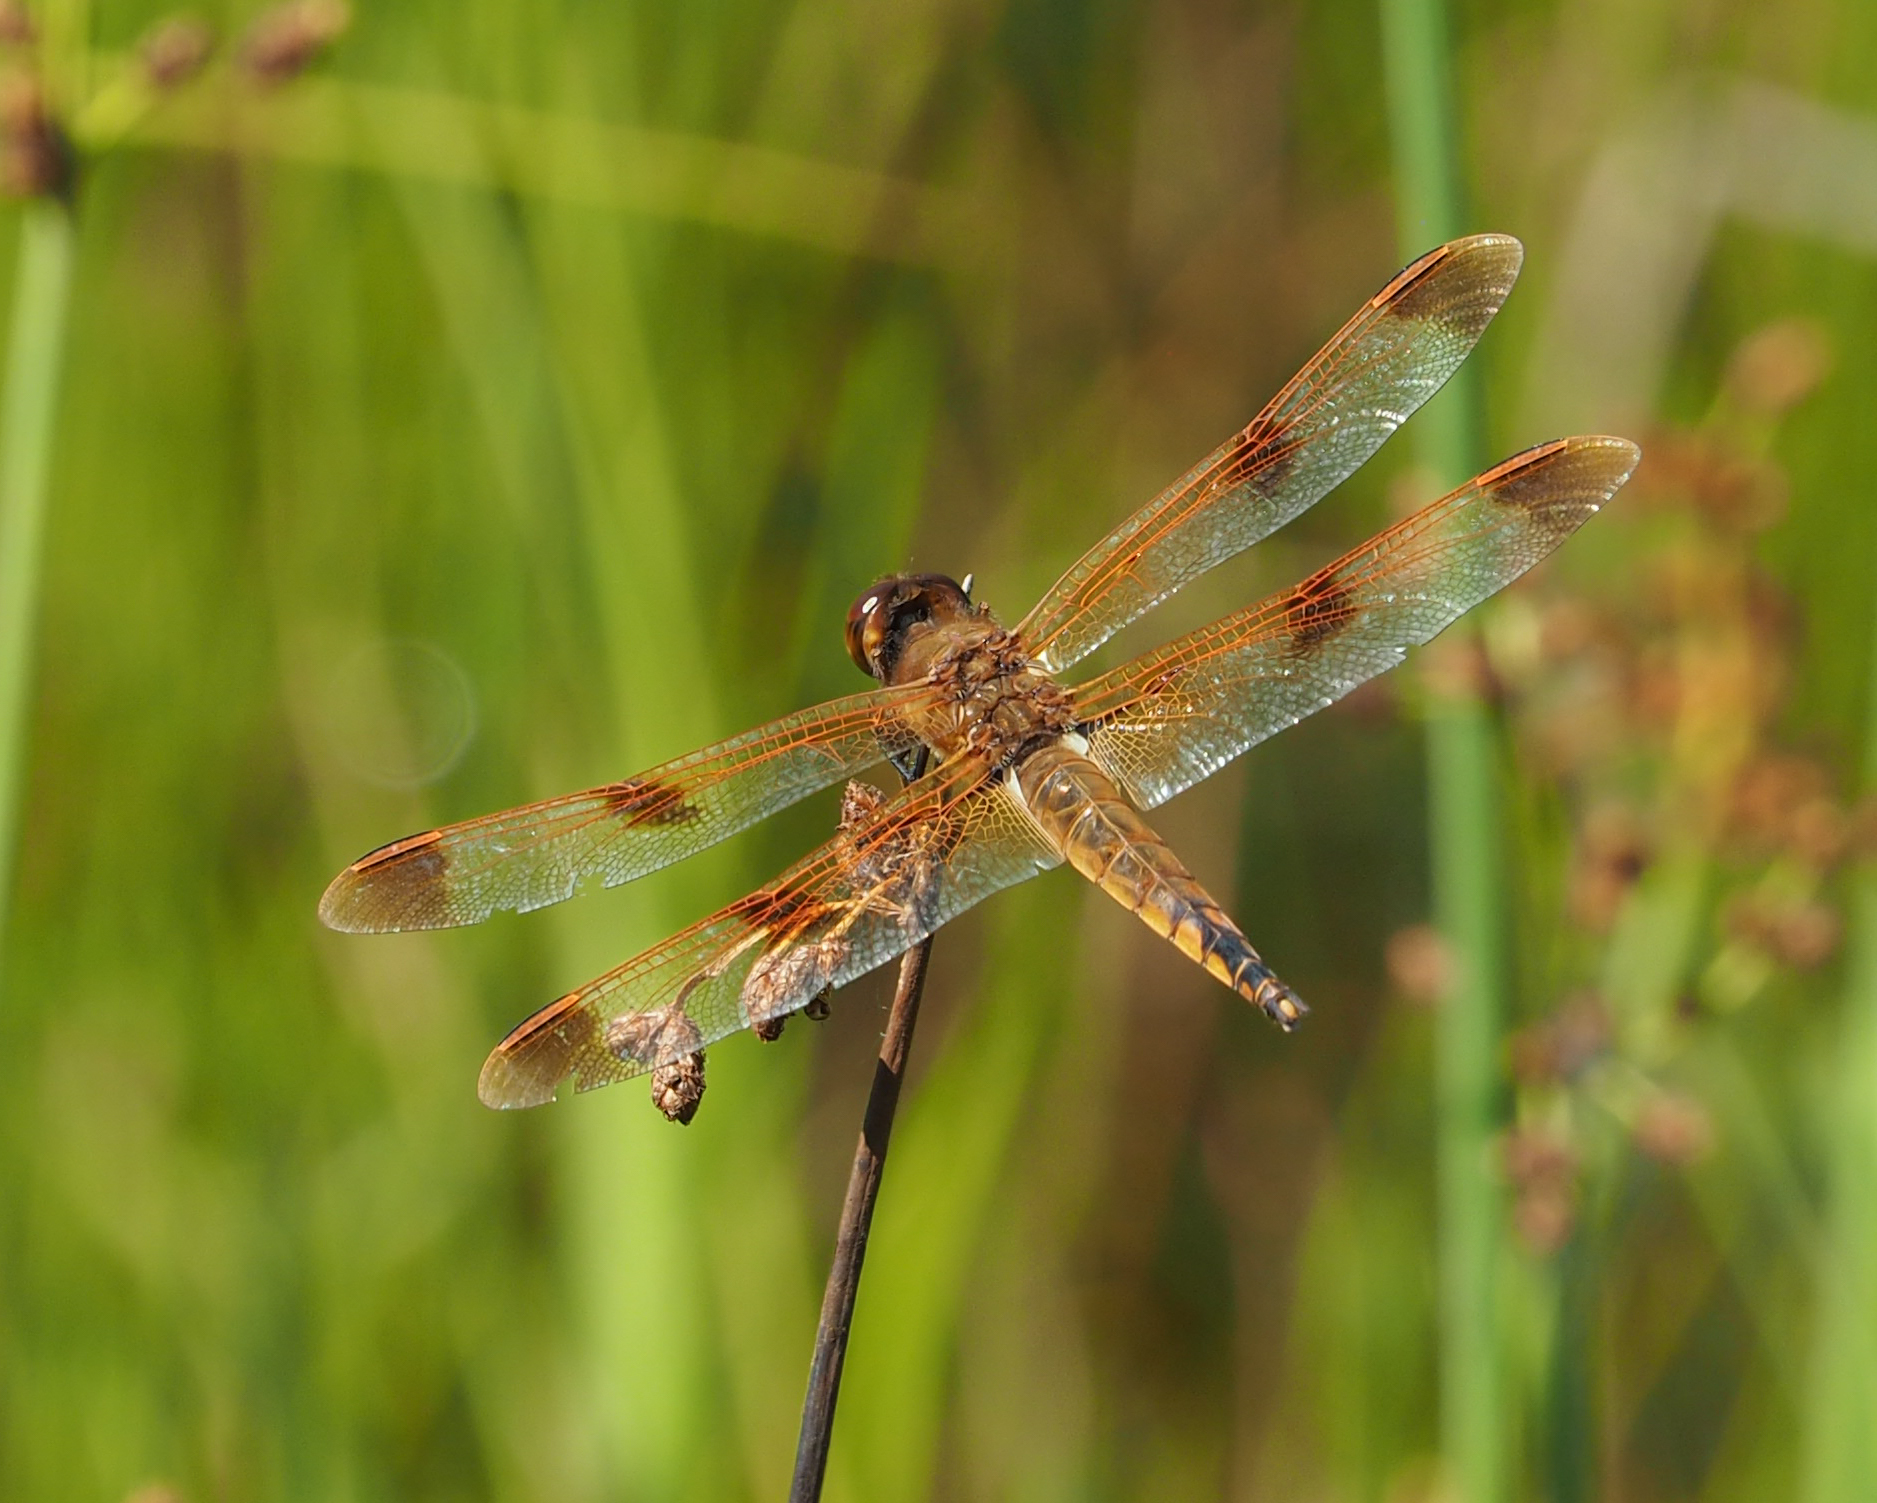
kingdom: Animalia
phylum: Arthropoda
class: Insecta
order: Odonata
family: Libellulidae
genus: Libellula
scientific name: Libellula semifasciata
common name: Painted skimmer
